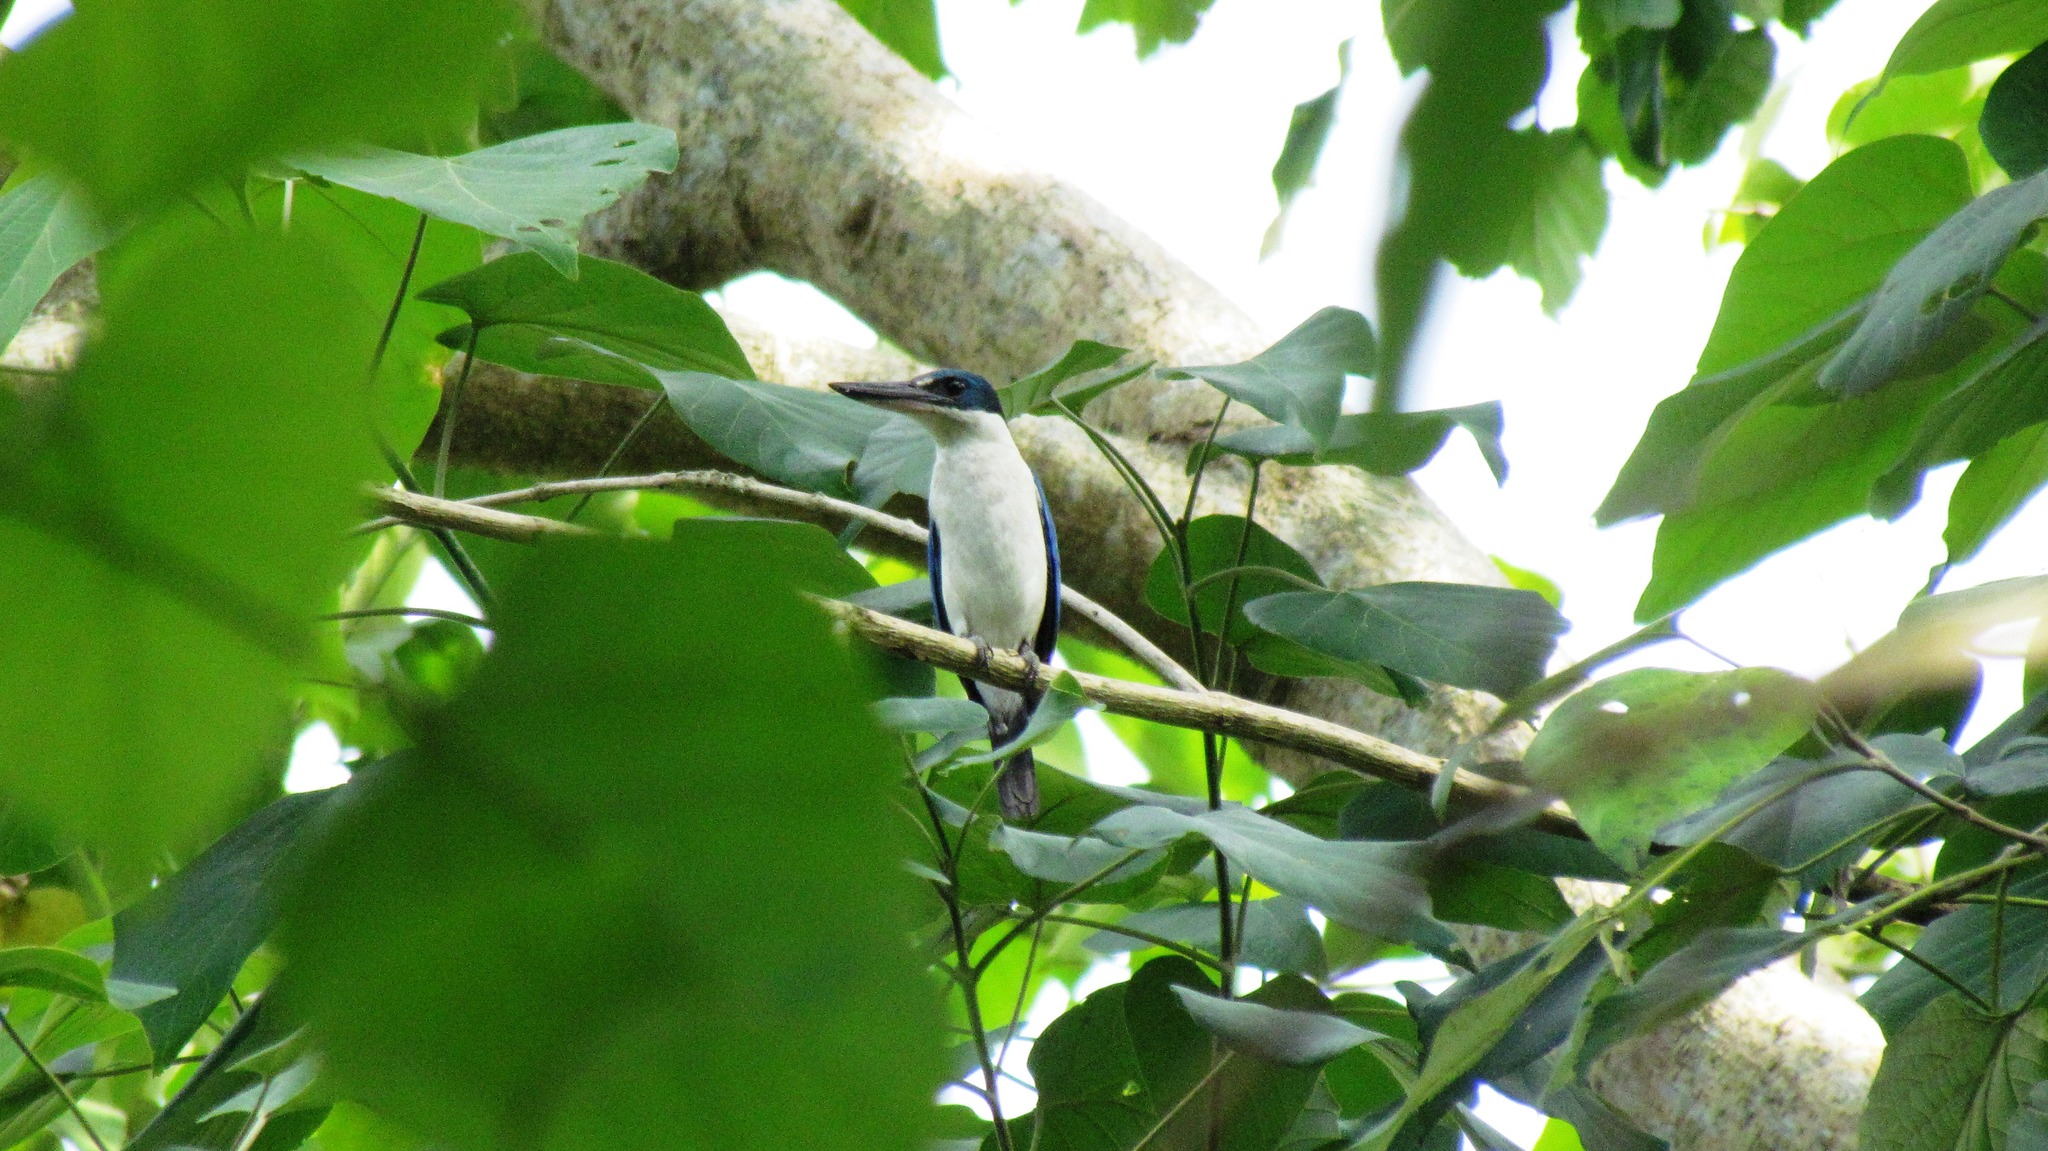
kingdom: Animalia
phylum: Chordata
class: Aves
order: Coraciiformes
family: Alcedinidae
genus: Todiramphus
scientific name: Todiramphus chloris
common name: Collared kingfisher
